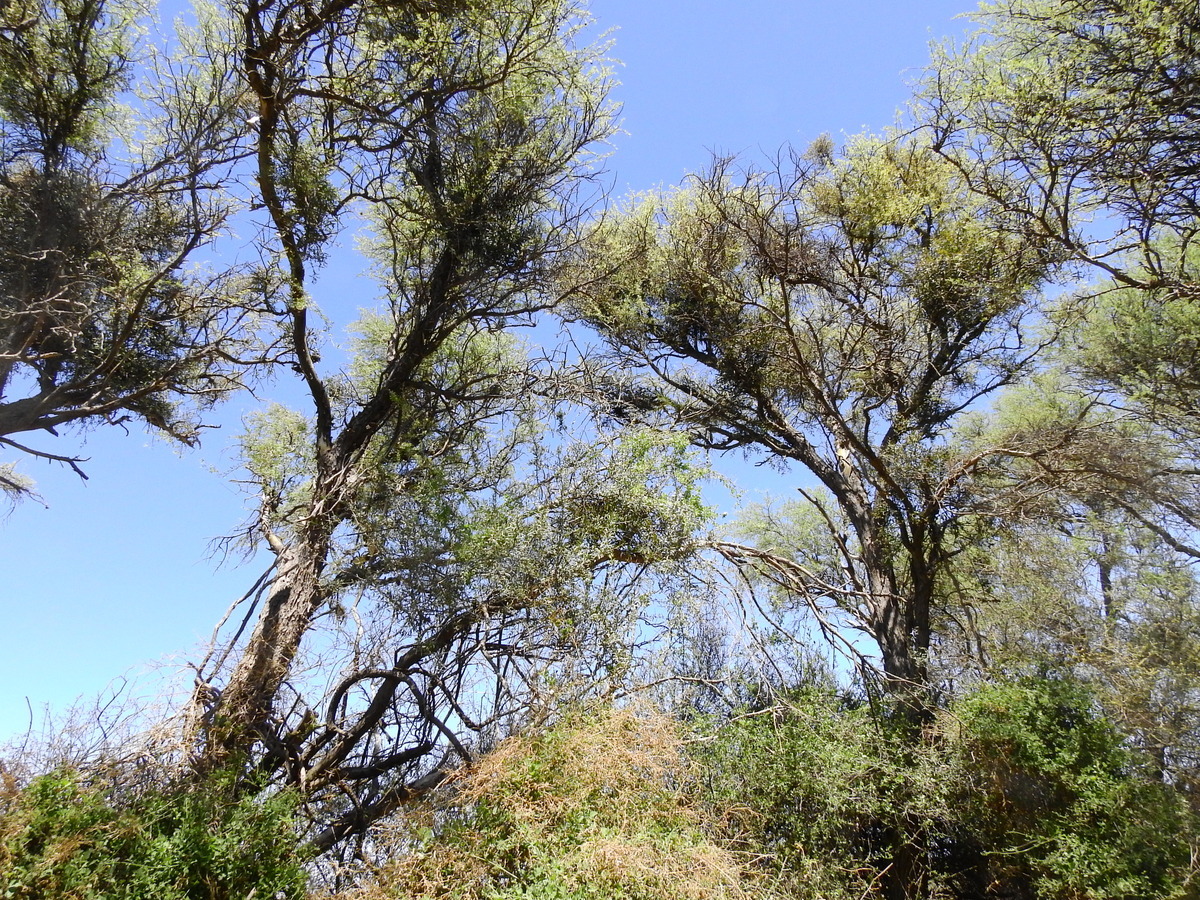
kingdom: Plantae
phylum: Tracheophyta
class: Magnoliopsida
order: Fabales
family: Fabaceae
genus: Geoffroea
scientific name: Geoffroea decorticans
